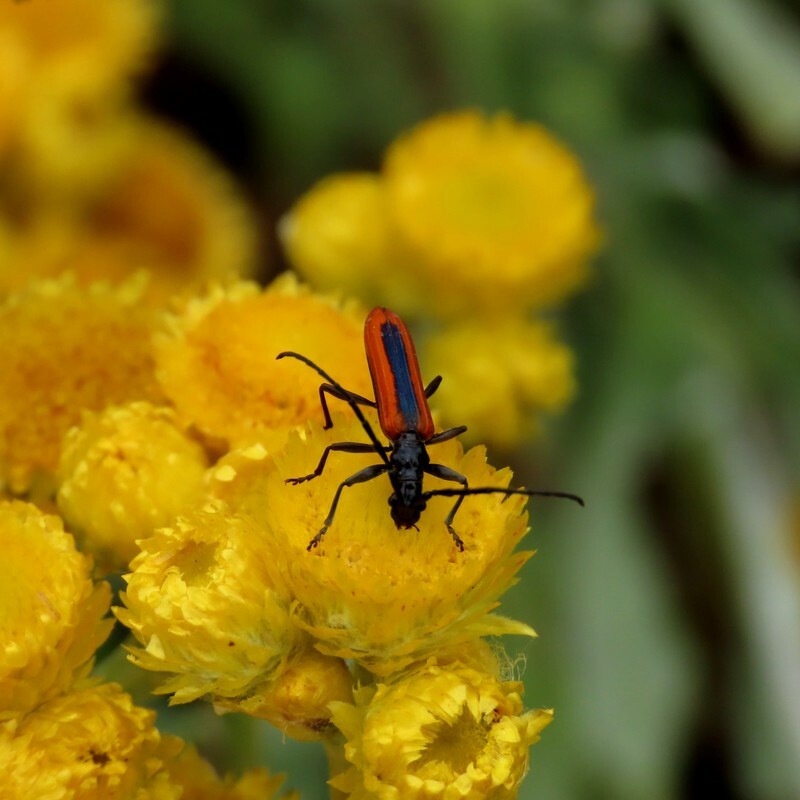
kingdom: Animalia
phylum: Arthropoda
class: Insecta
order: Coleoptera
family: Cerambycidae
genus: Stenoderus
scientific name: Stenoderus suturalis
